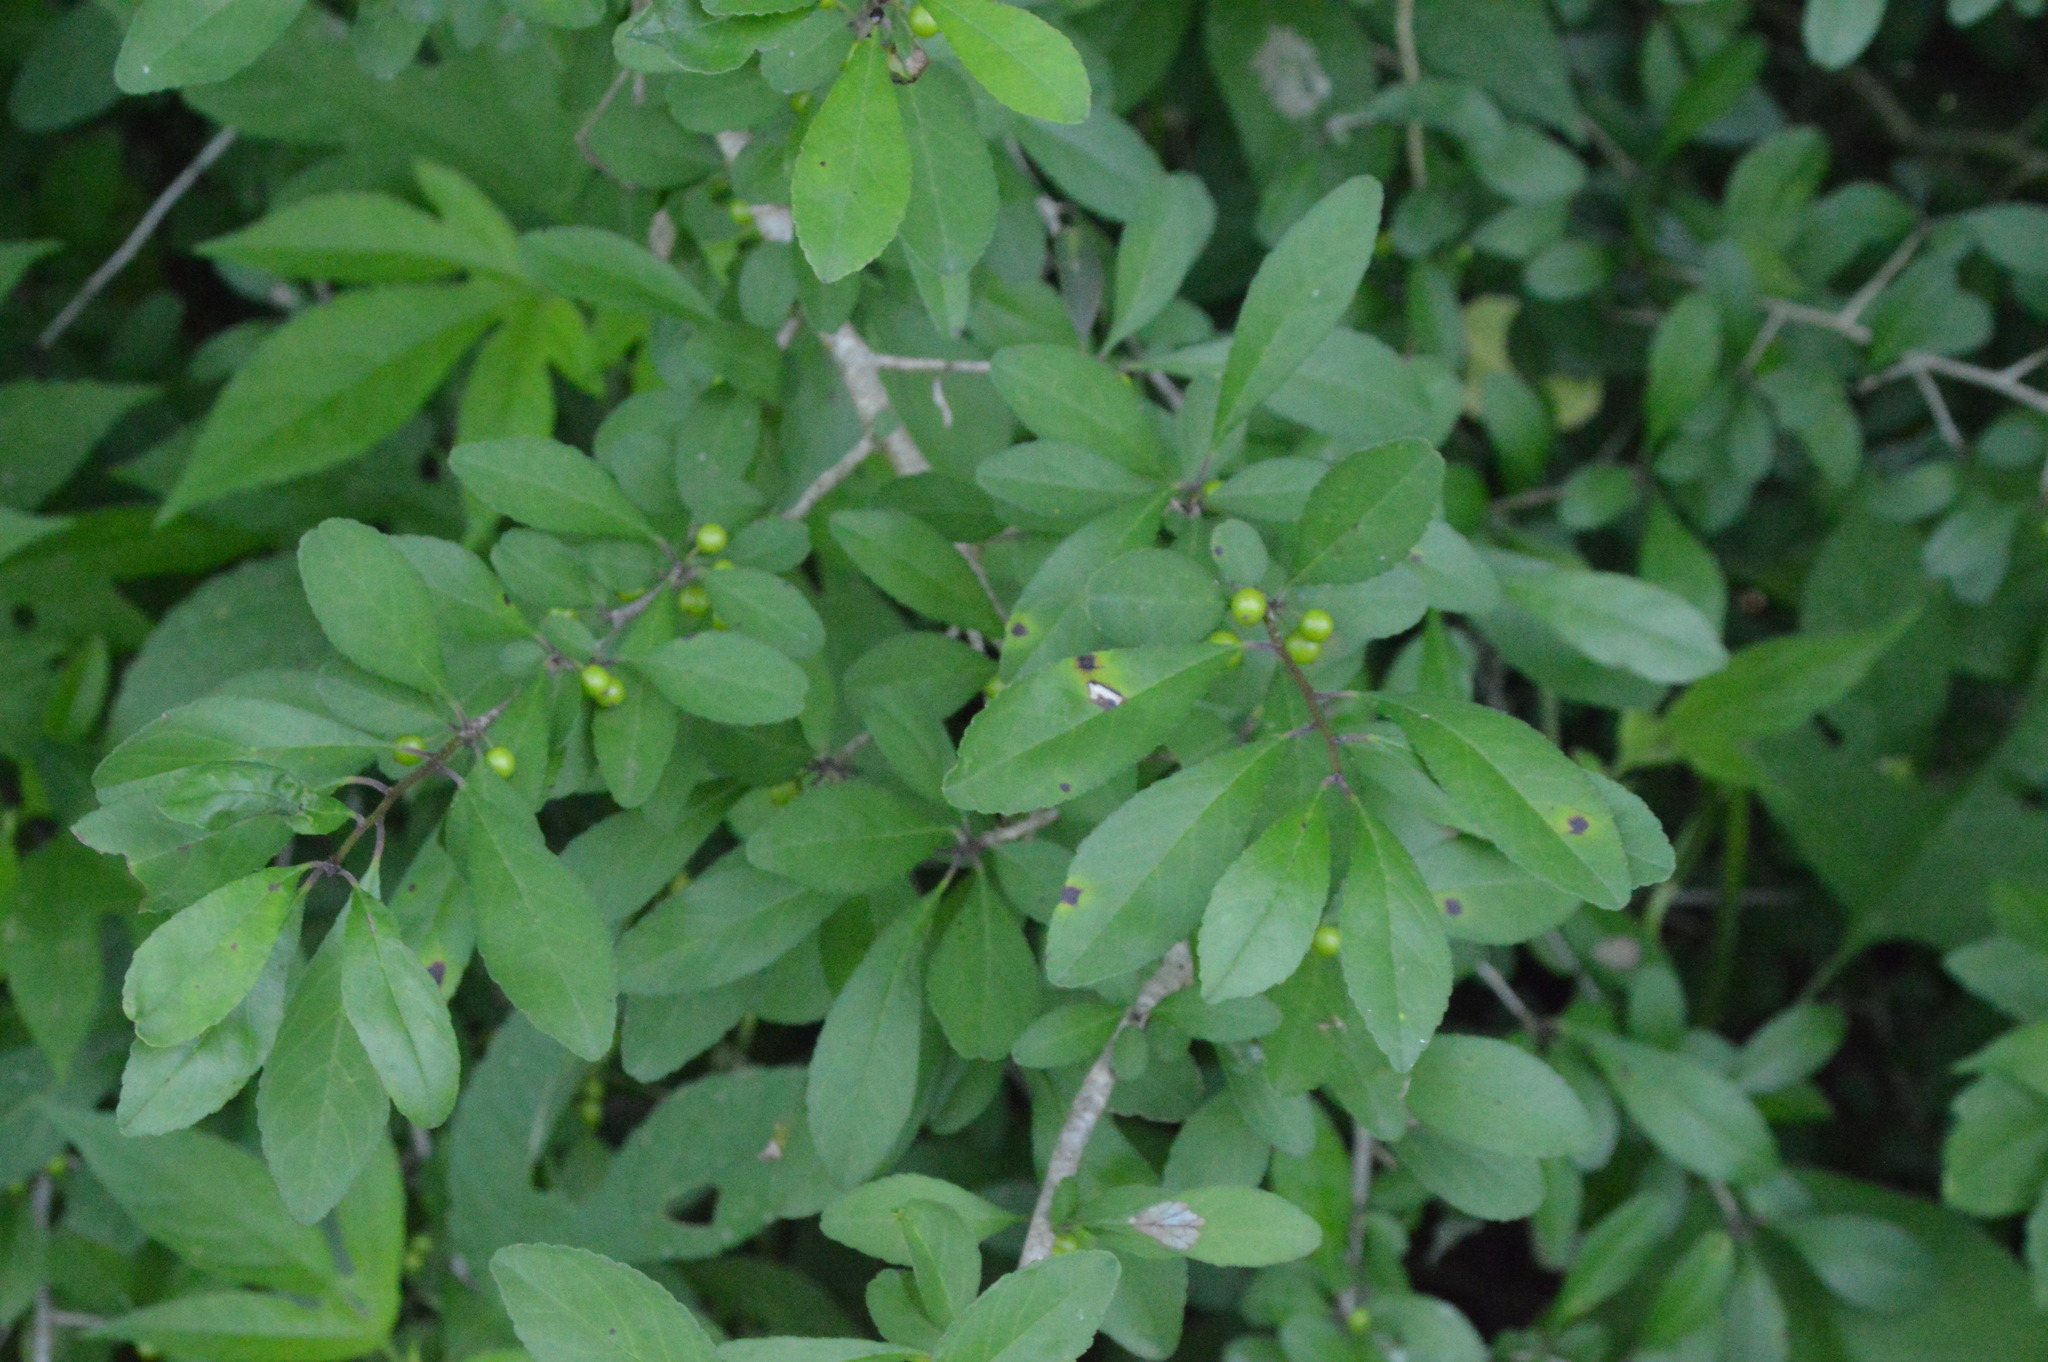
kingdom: Plantae
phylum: Tracheophyta
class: Magnoliopsida
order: Aquifoliales
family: Aquifoliaceae
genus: Ilex
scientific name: Ilex decidua
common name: Possum-haw
